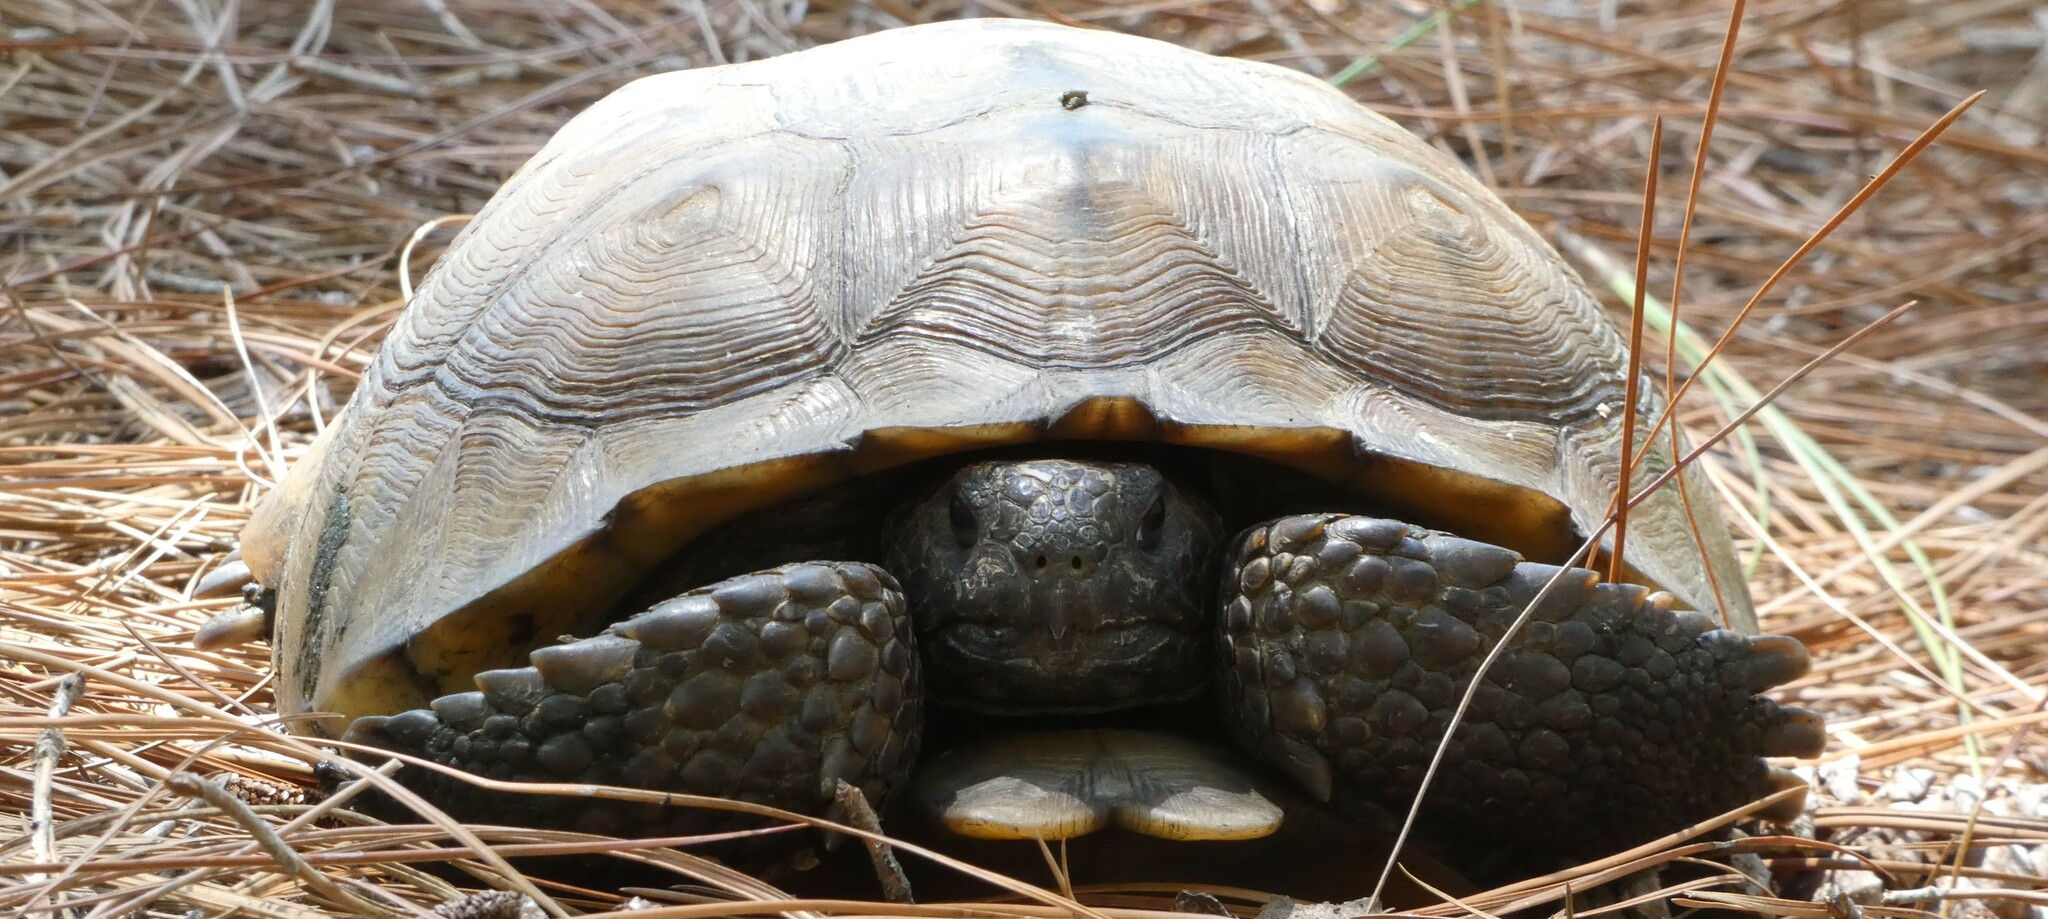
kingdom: Animalia
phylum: Chordata
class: Testudines
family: Testudinidae
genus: Gopherus
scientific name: Gopherus polyphemus
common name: Florida gopher tortoise
